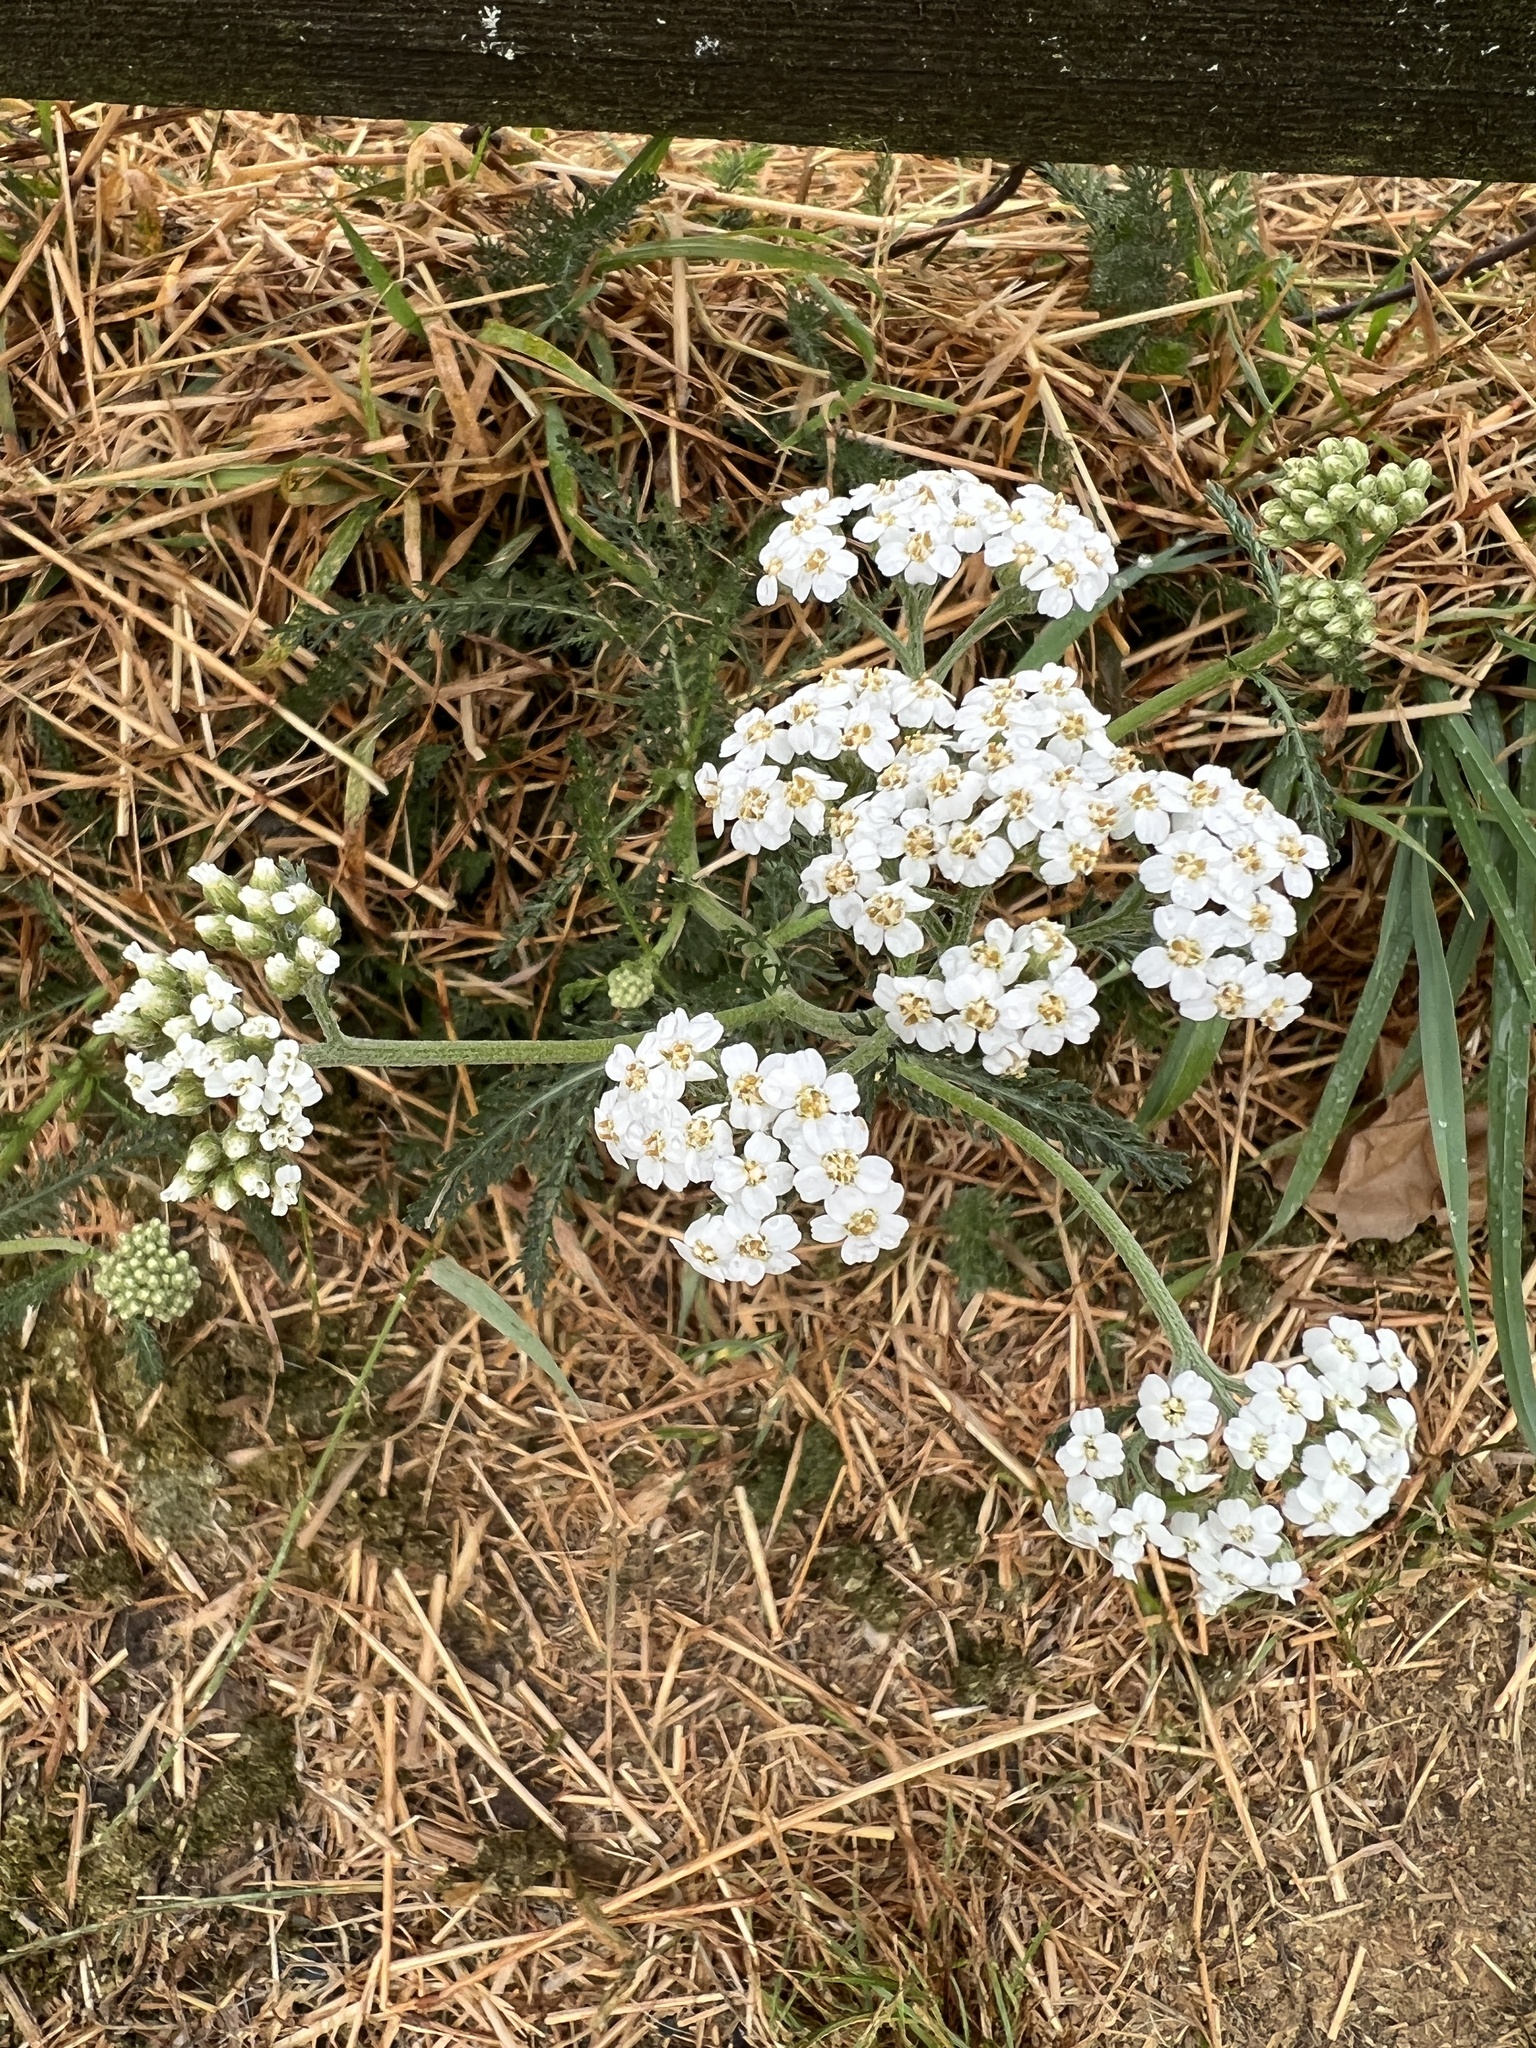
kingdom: Plantae
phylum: Tracheophyta
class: Magnoliopsida
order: Asterales
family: Asteraceae
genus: Achillea
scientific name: Achillea millefolium
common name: Yarrow
